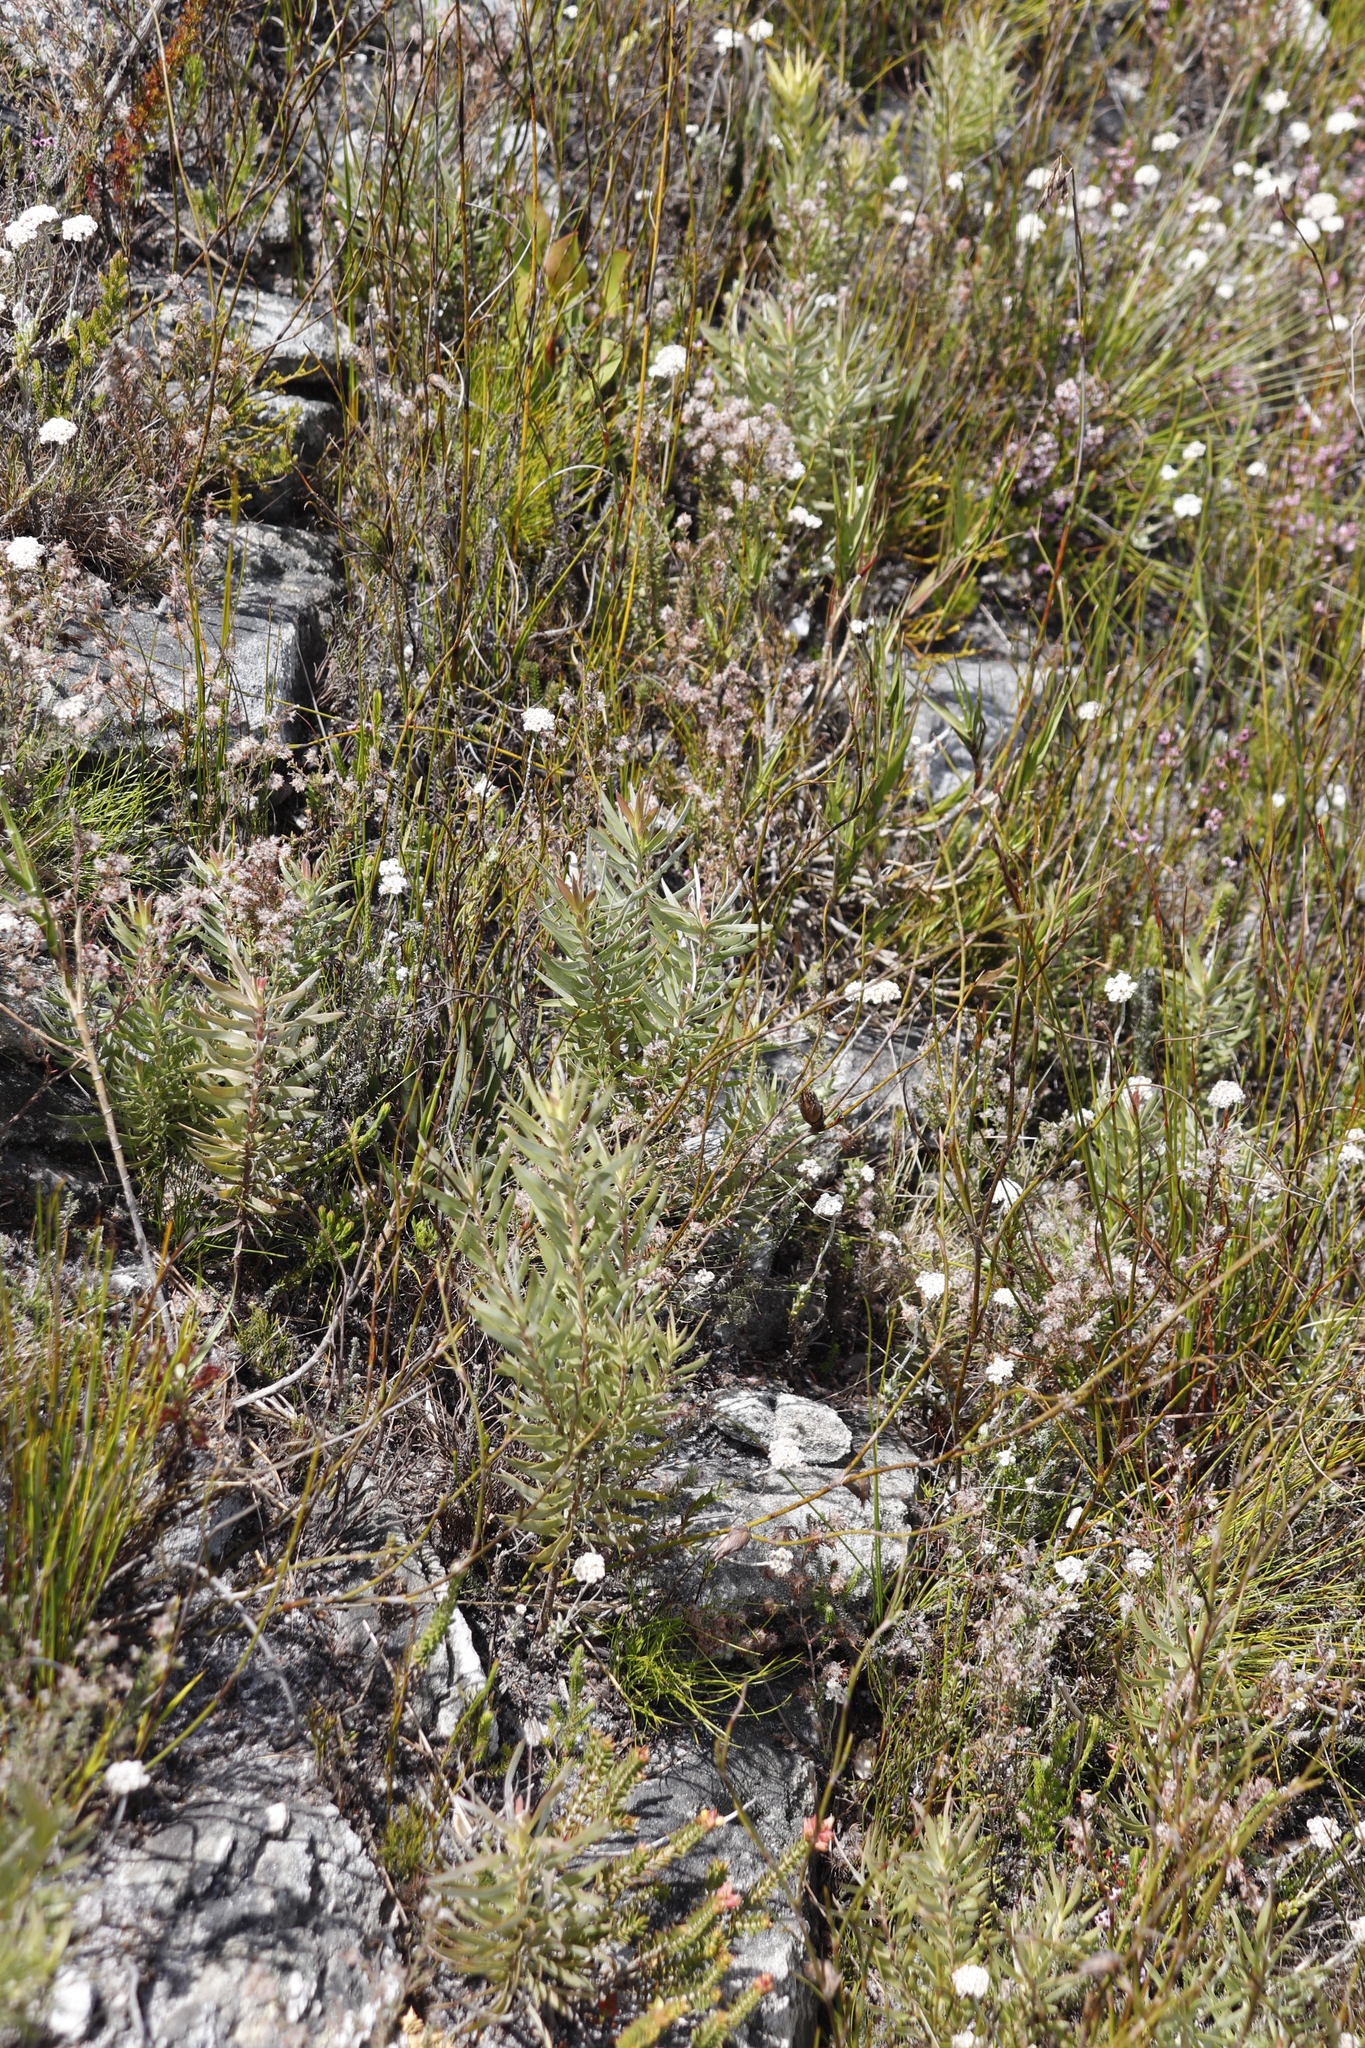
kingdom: Plantae
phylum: Tracheophyta
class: Magnoliopsida
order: Proteales
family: Proteaceae
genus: Leucadendron
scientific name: Leucadendron xanthoconus
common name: Sickle-leaf conebush
